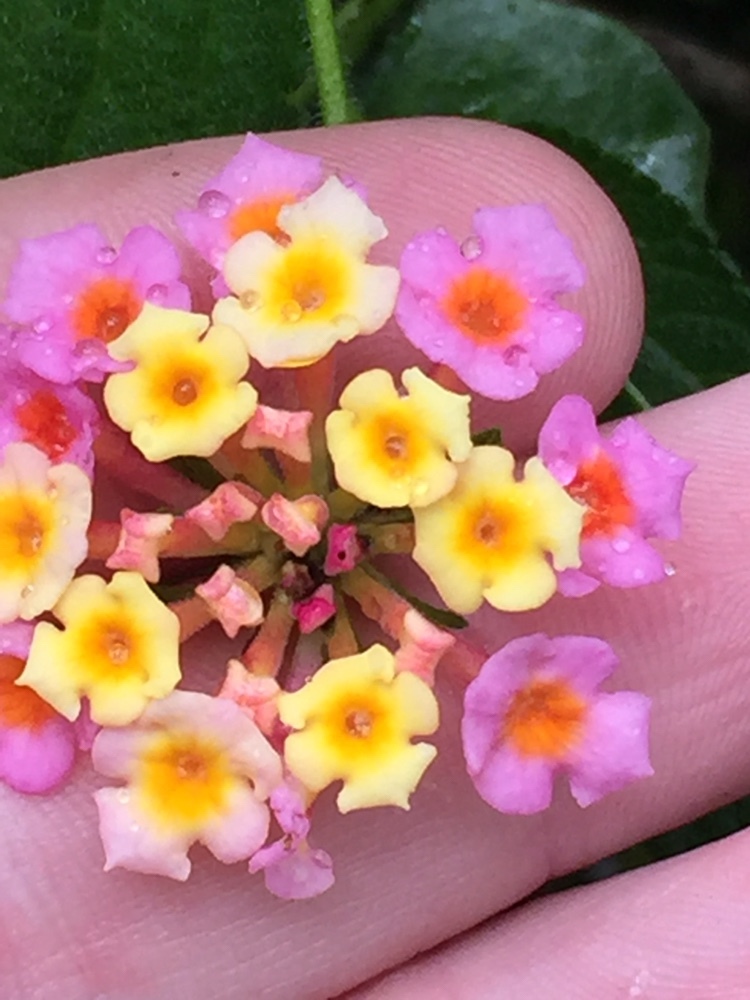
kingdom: Plantae
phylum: Tracheophyta
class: Magnoliopsida
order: Lamiales
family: Verbenaceae
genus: Lantana
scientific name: Lantana camara
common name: Lantana
